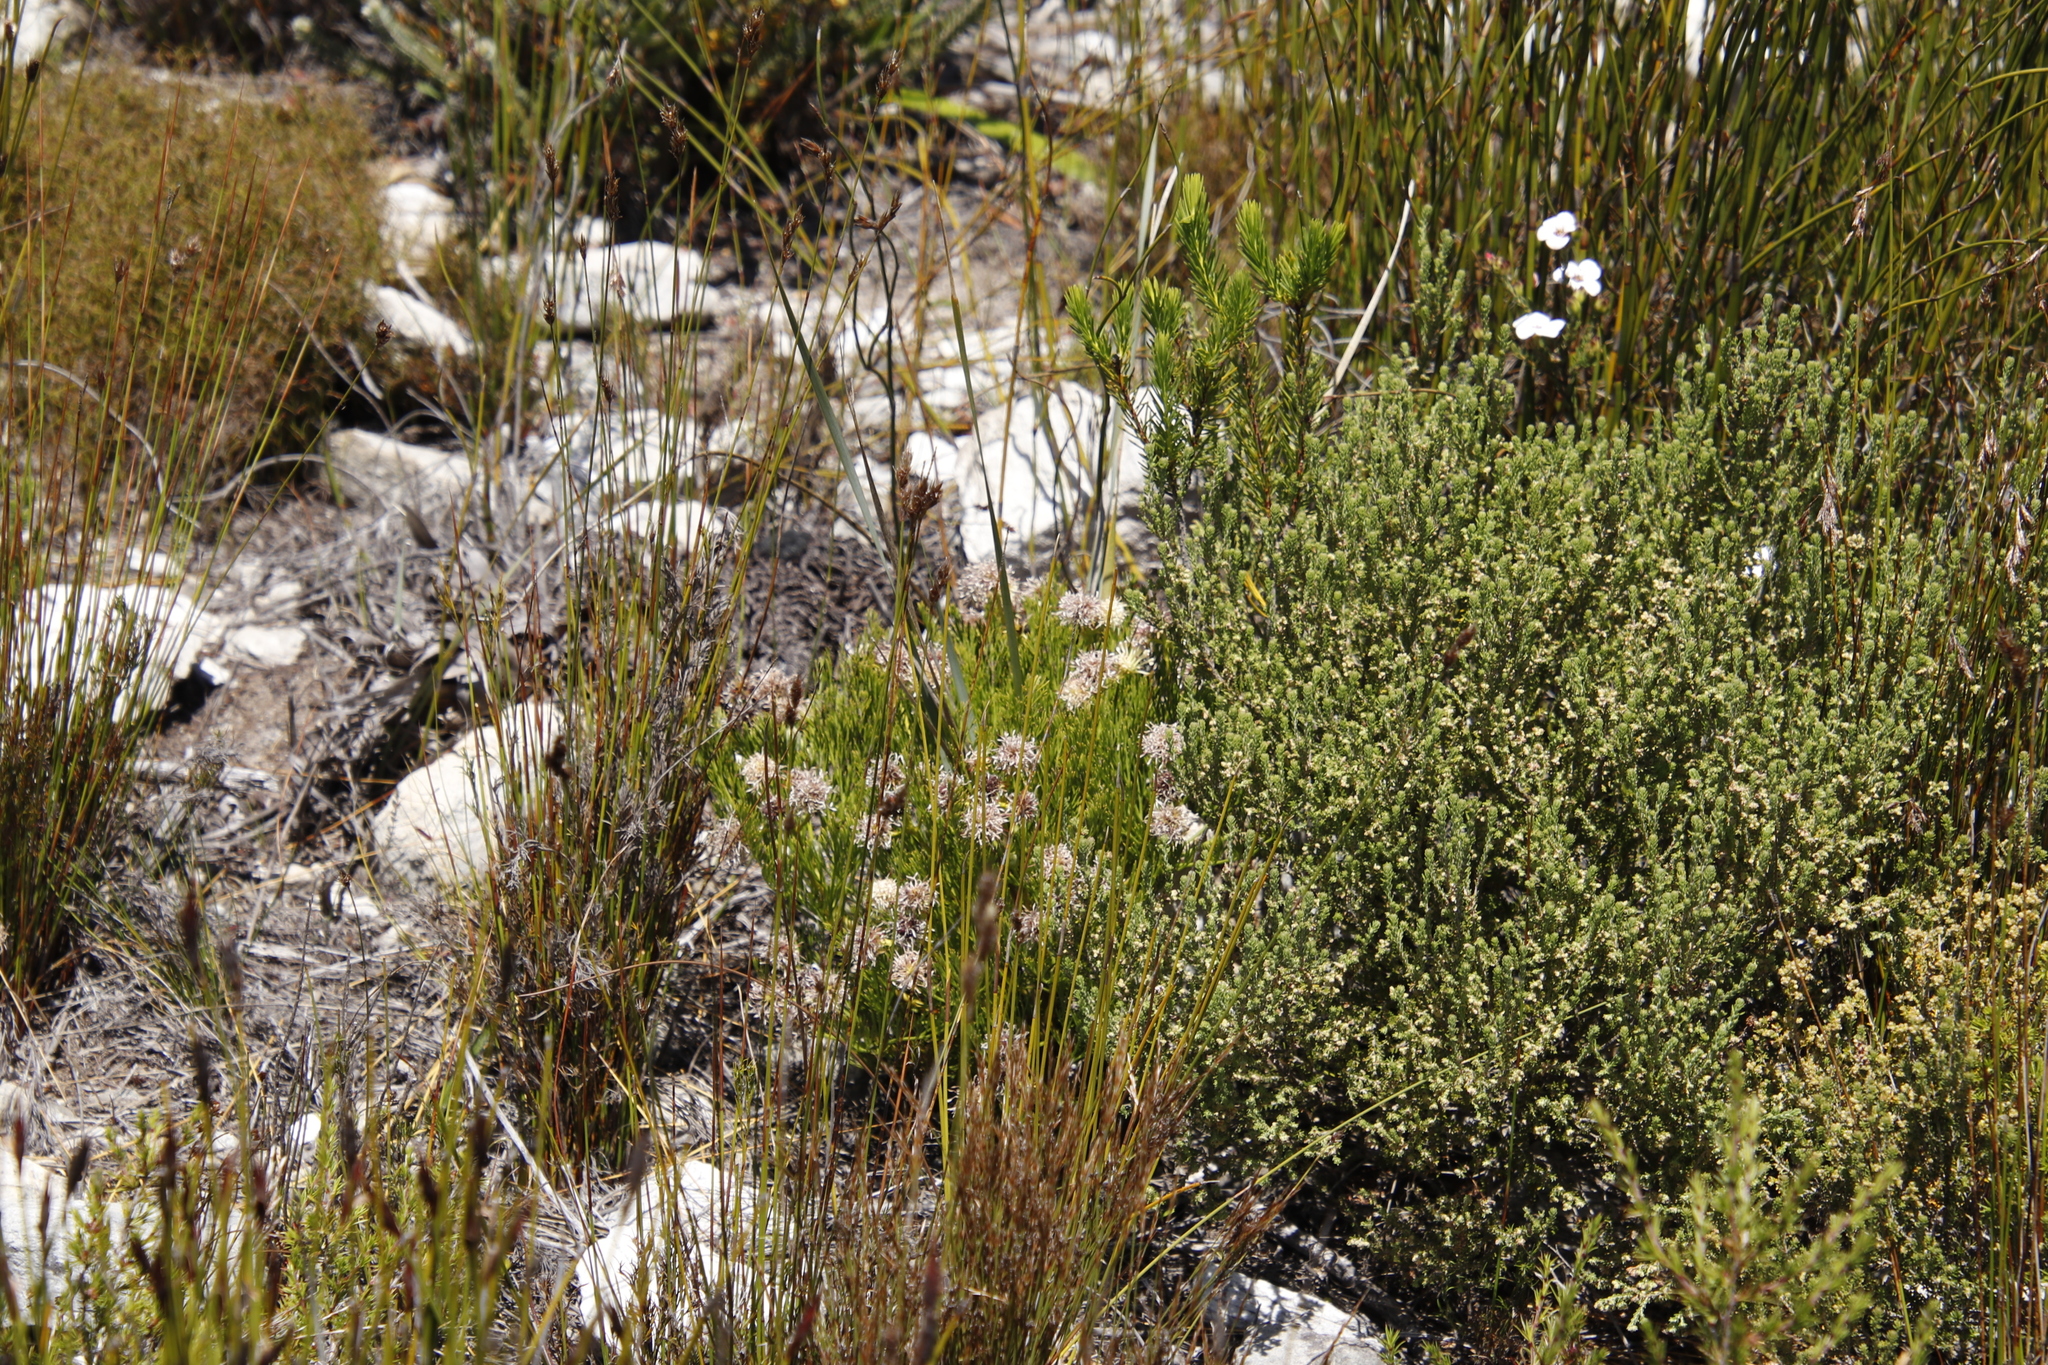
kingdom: Plantae
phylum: Tracheophyta
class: Magnoliopsida
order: Proteales
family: Proteaceae
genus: Serruria
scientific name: Serruria elongata
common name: Long-stalk spiderhead
